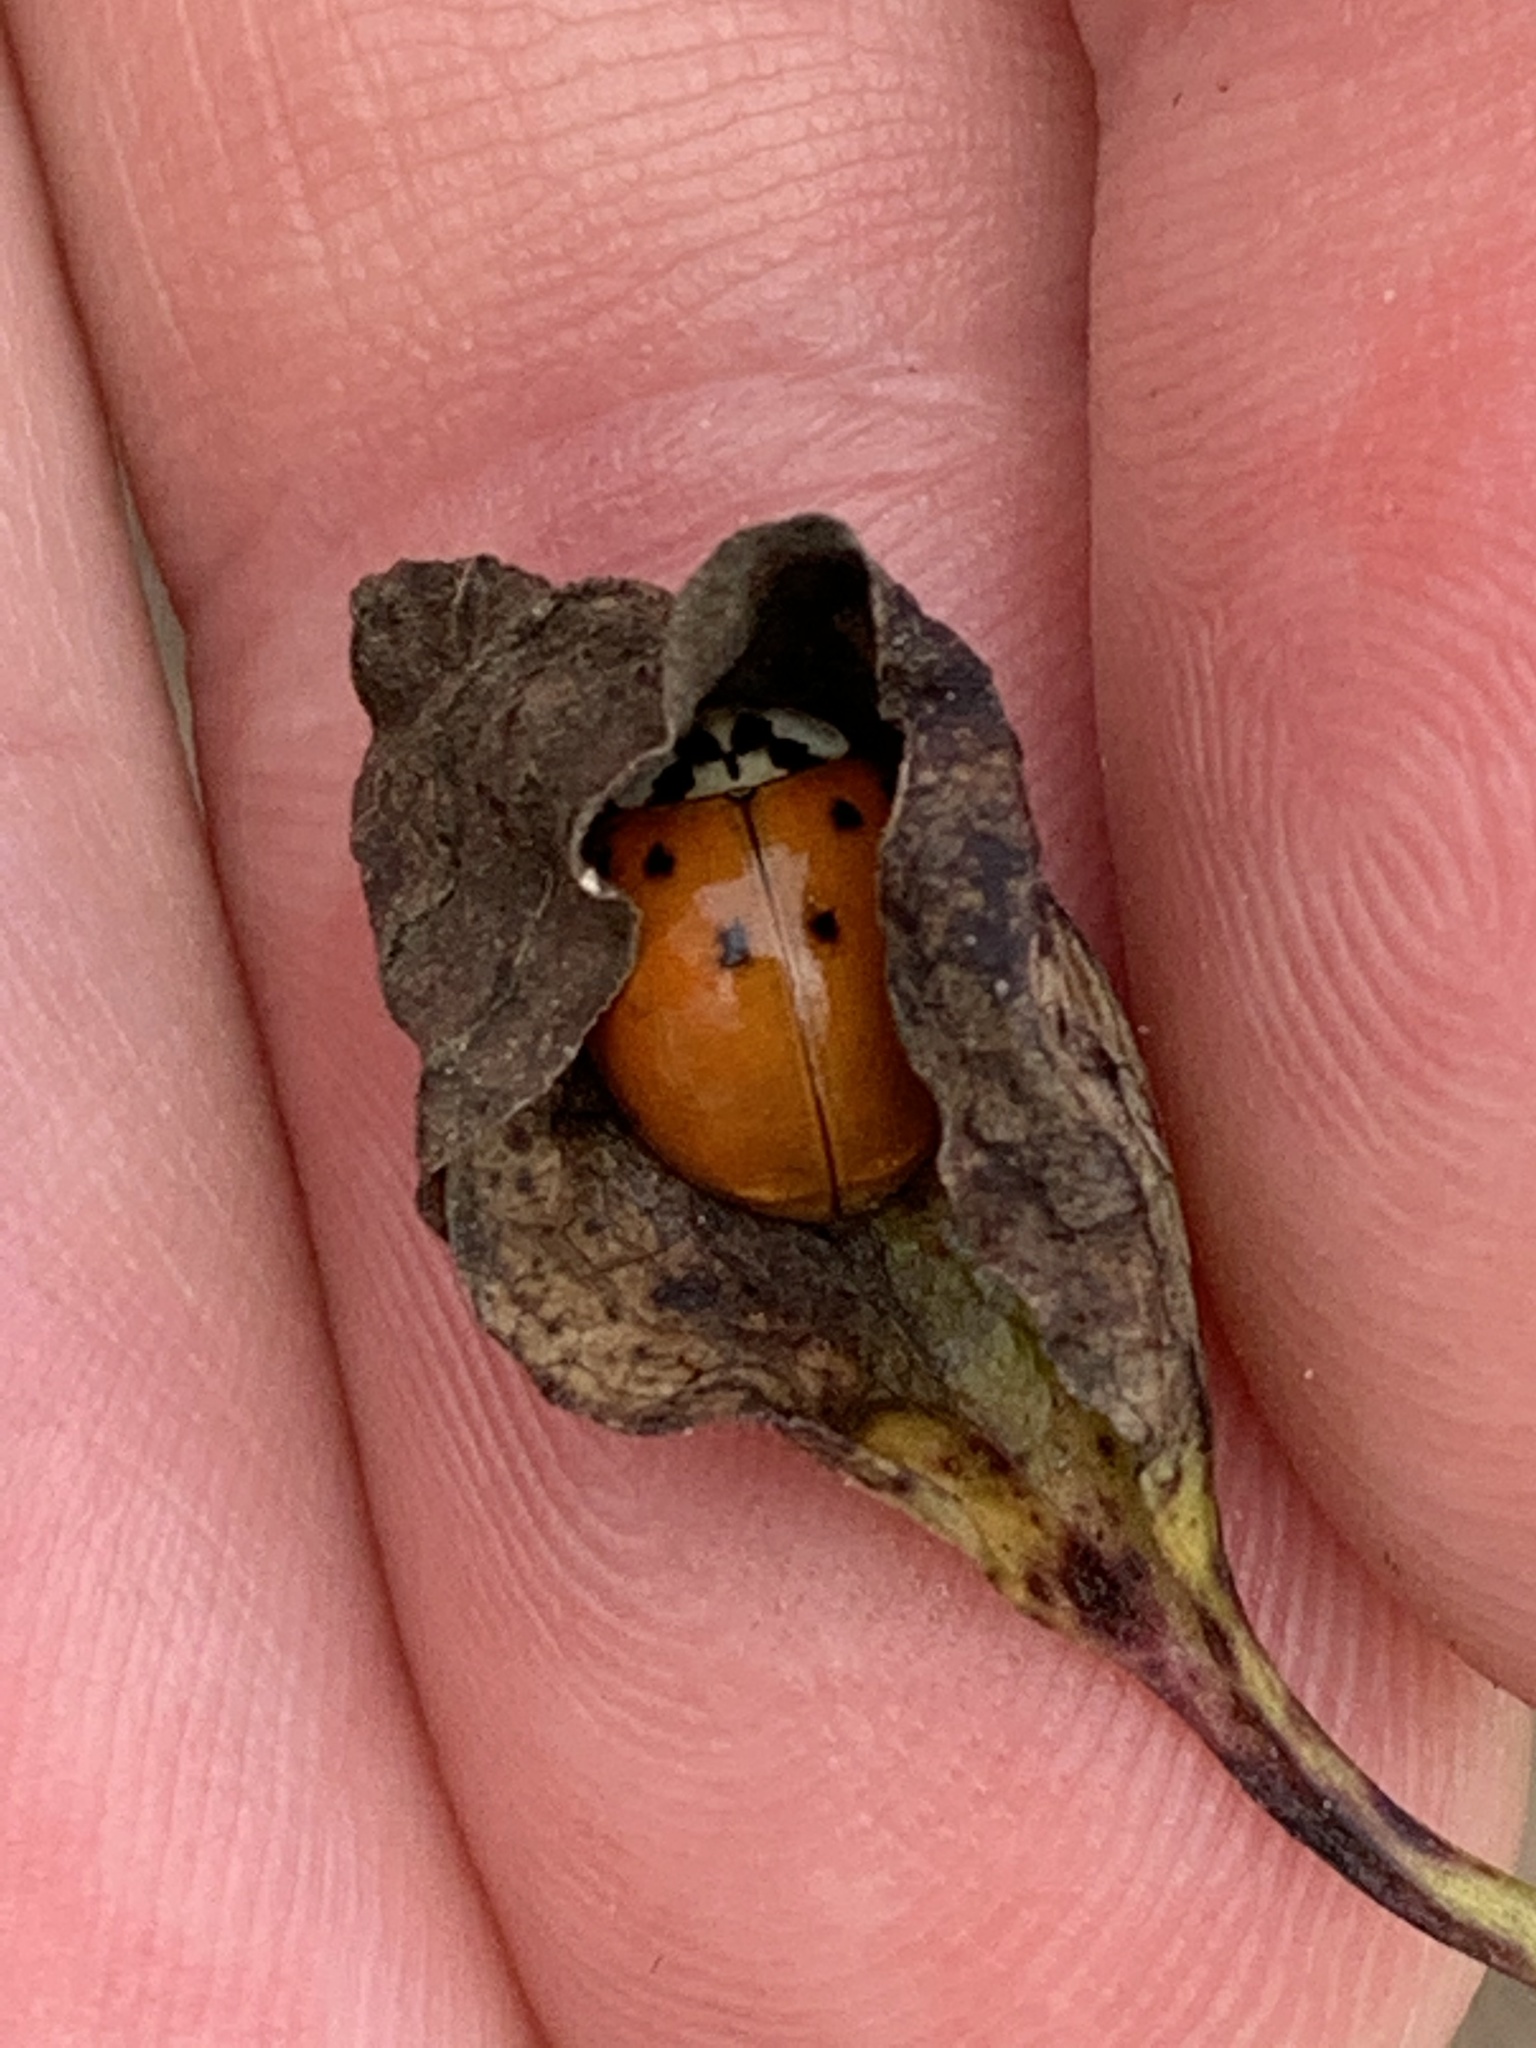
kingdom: Animalia
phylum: Arthropoda
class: Insecta
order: Coleoptera
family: Coccinellidae
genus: Harmonia
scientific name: Harmonia axyridis
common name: Harlequin ladybird
